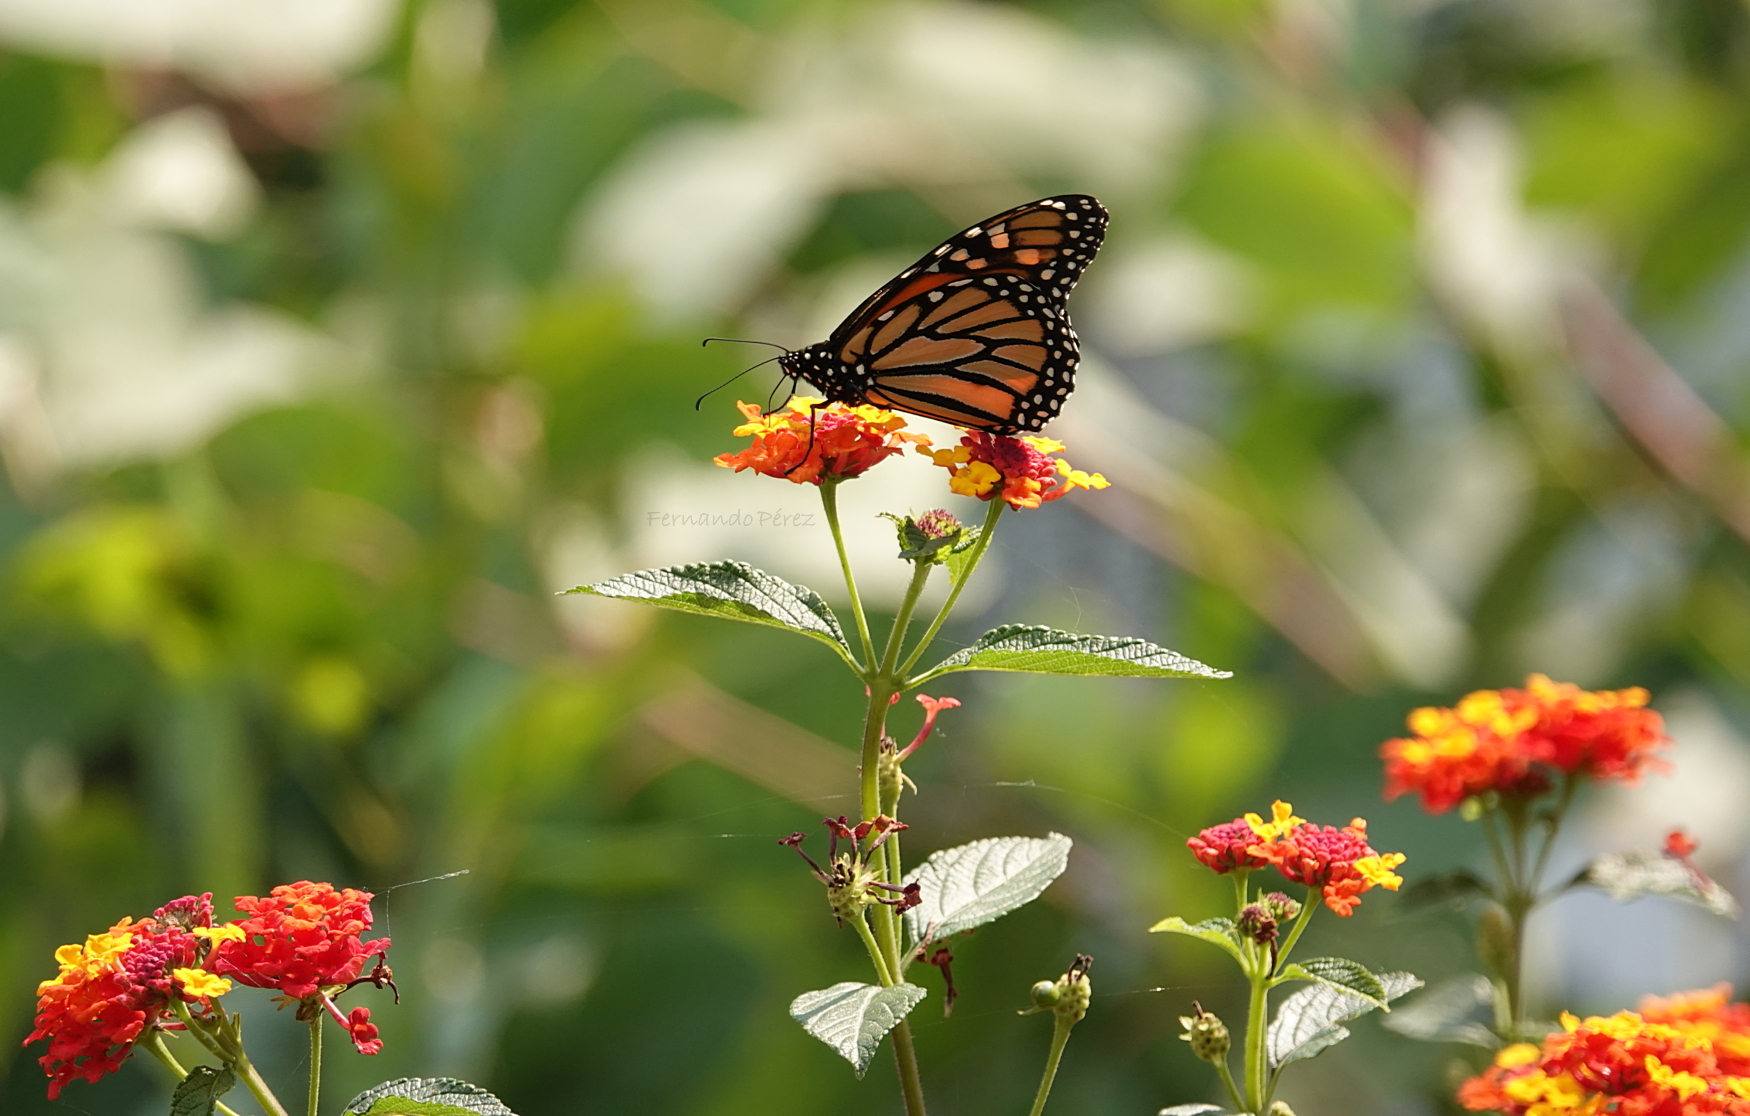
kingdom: Animalia
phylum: Arthropoda
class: Insecta
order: Lepidoptera
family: Nymphalidae
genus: Danaus
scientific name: Danaus plexippus
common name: Monarch
